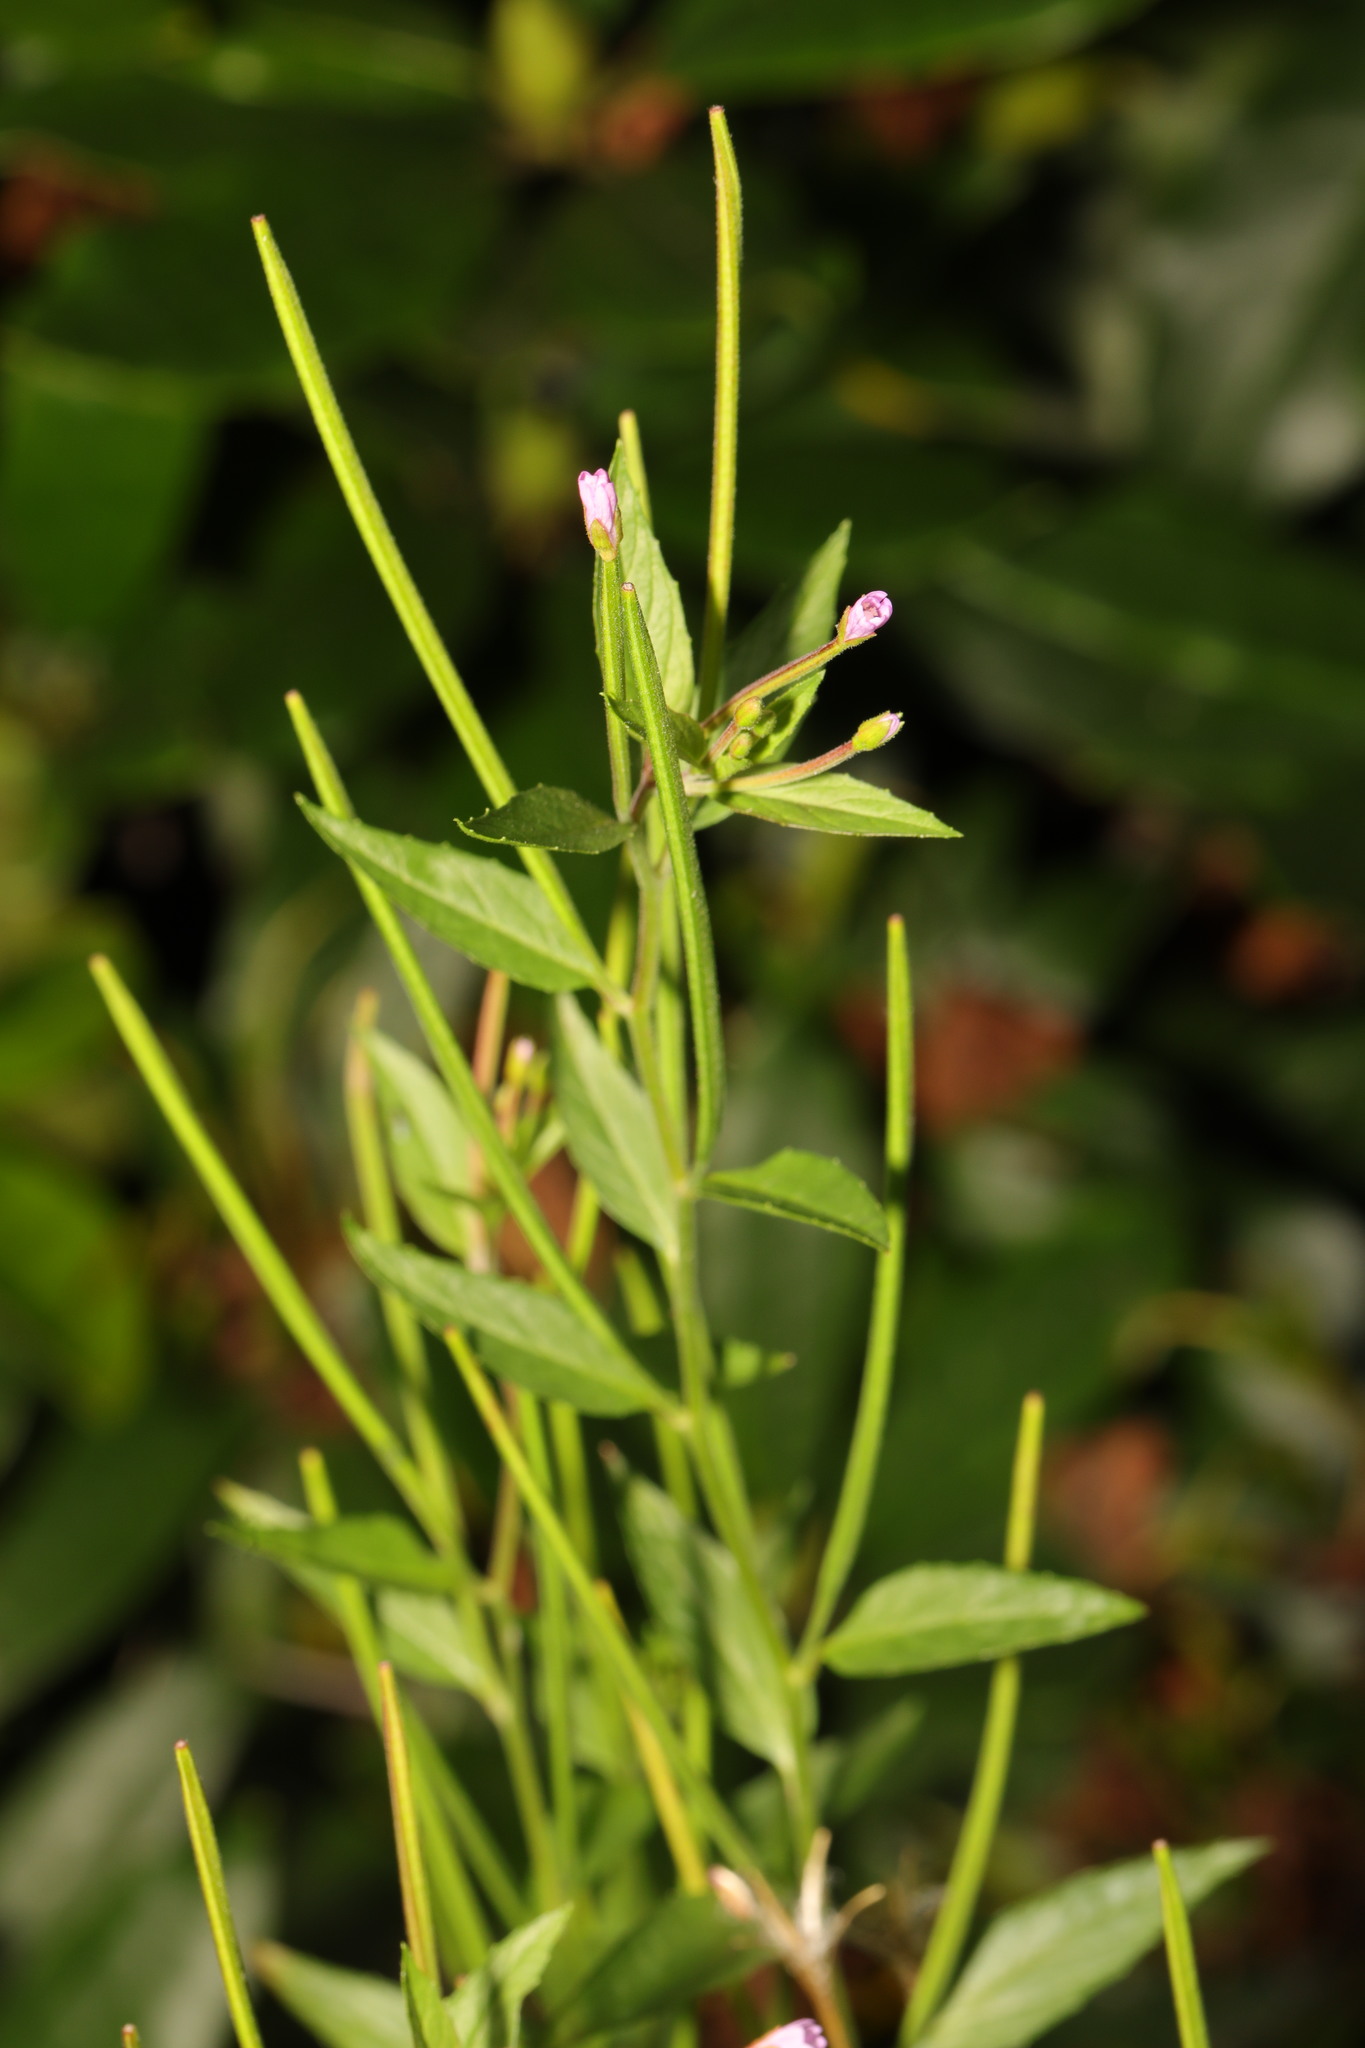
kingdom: Plantae
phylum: Tracheophyta
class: Magnoliopsida
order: Myrtales
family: Onagraceae
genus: Epilobium
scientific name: Epilobium ciliatum
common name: American willowherb
